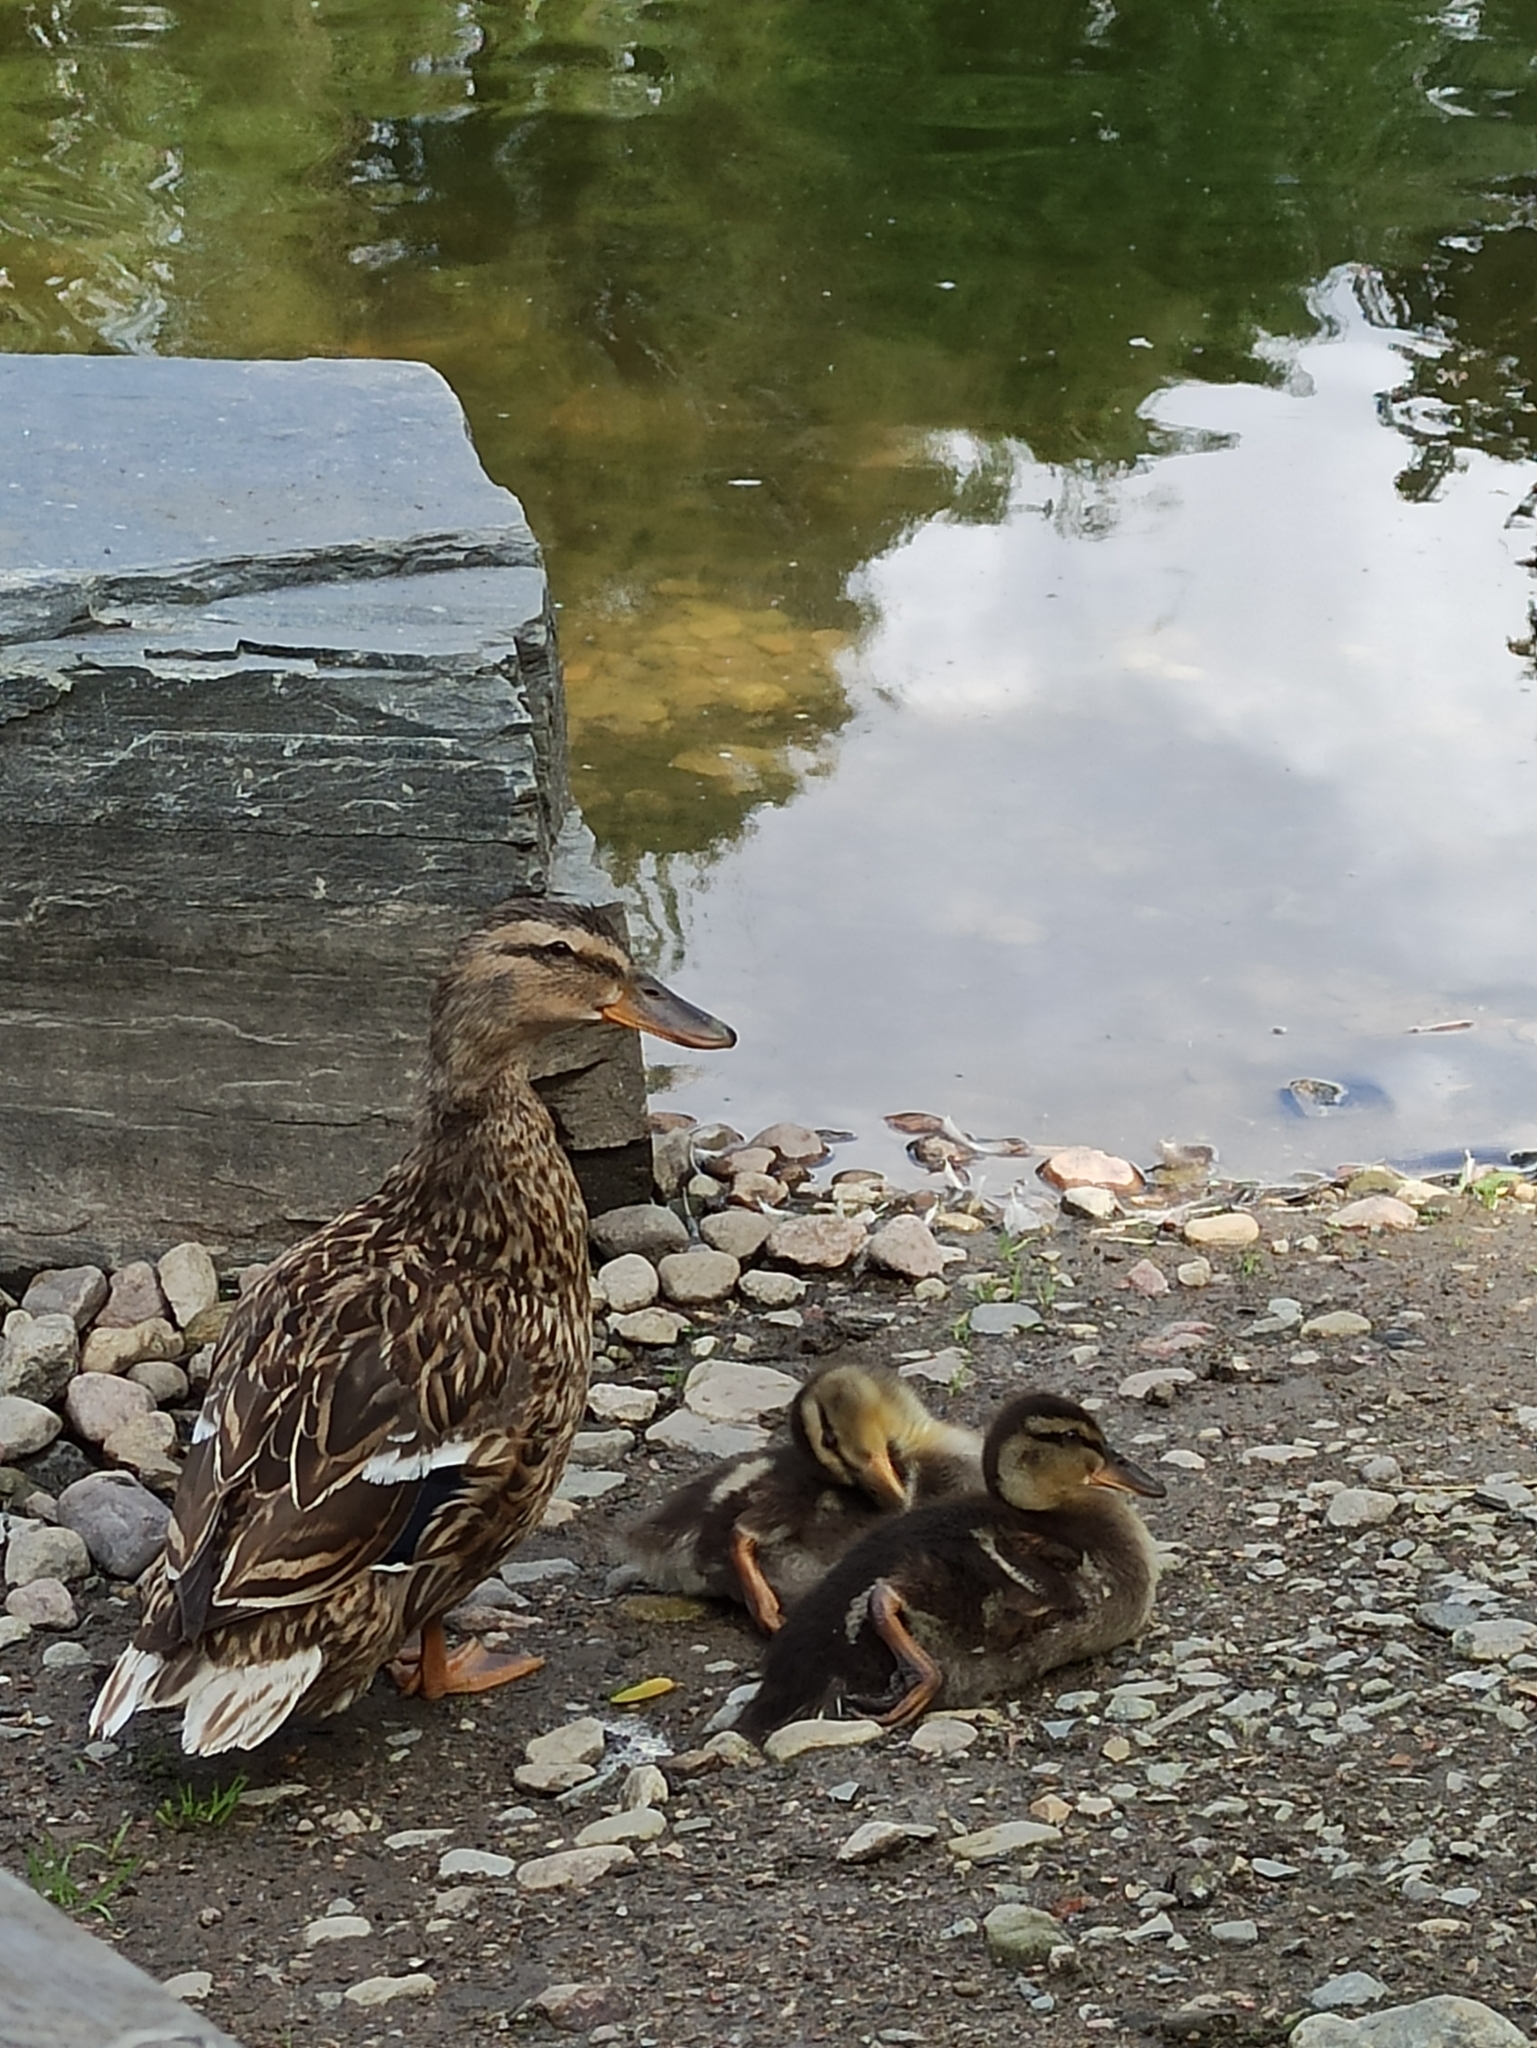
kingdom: Animalia
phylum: Chordata
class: Aves
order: Anseriformes
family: Anatidae
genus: Anas
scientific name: Anas platyrhynchos
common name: Mallard
